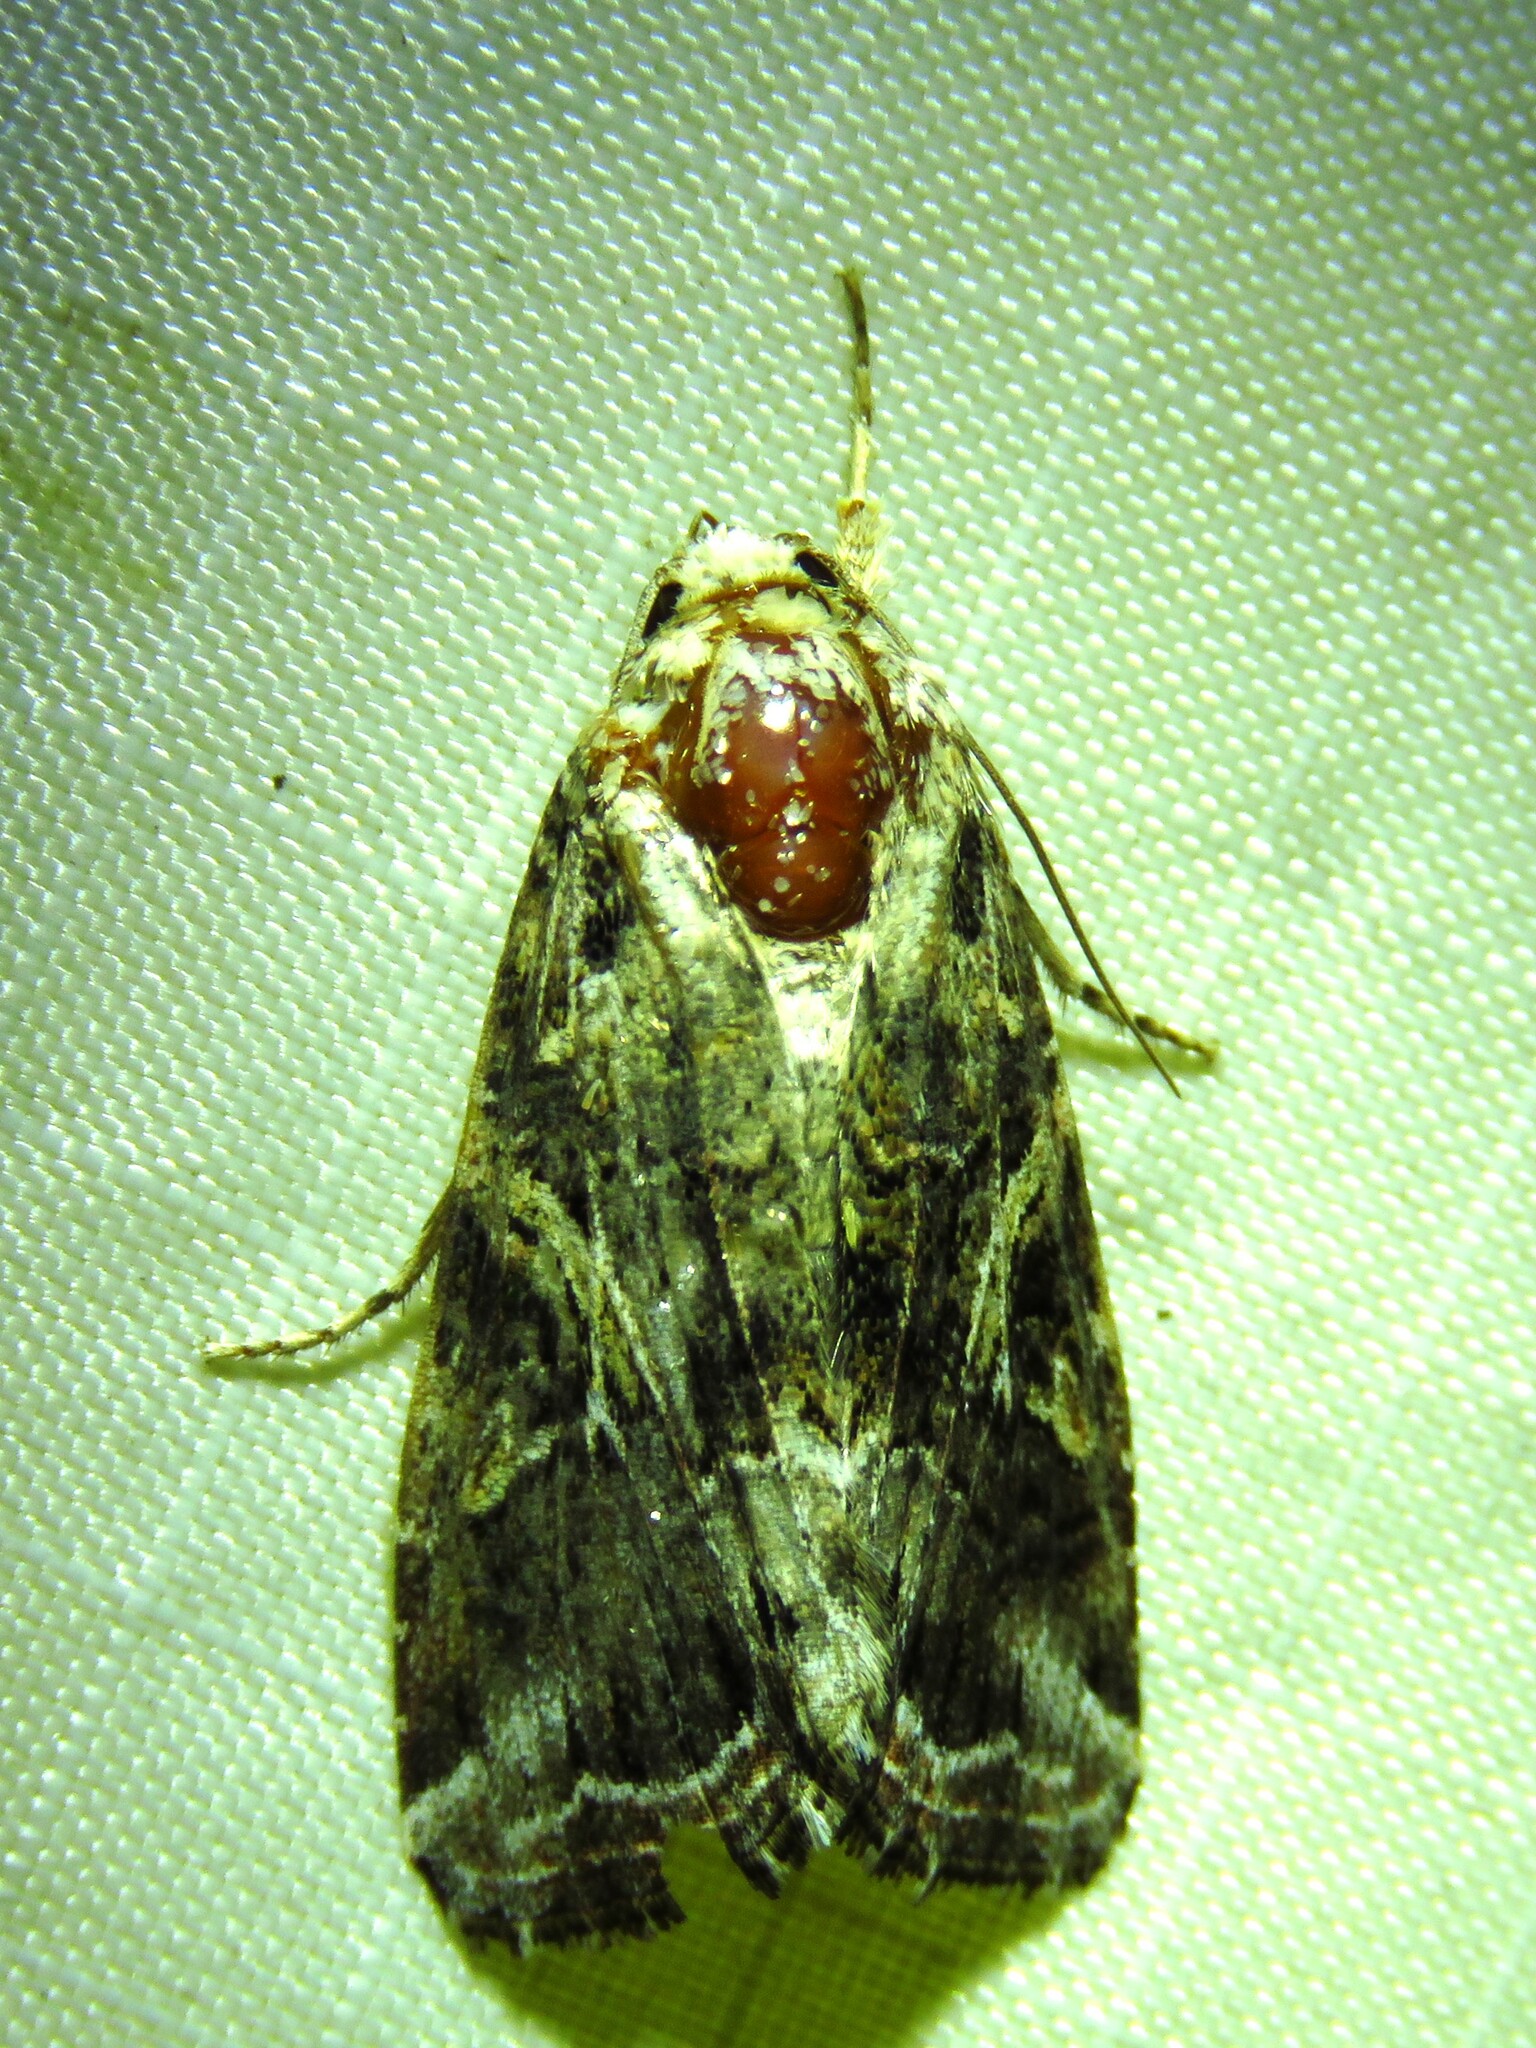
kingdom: Animalia
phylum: Arthropoda
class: Insecta
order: Lepidoptera
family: Noctuidae
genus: Spodoptera
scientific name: Spodoptera ornithogalli
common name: Yellow-striped armyworm
